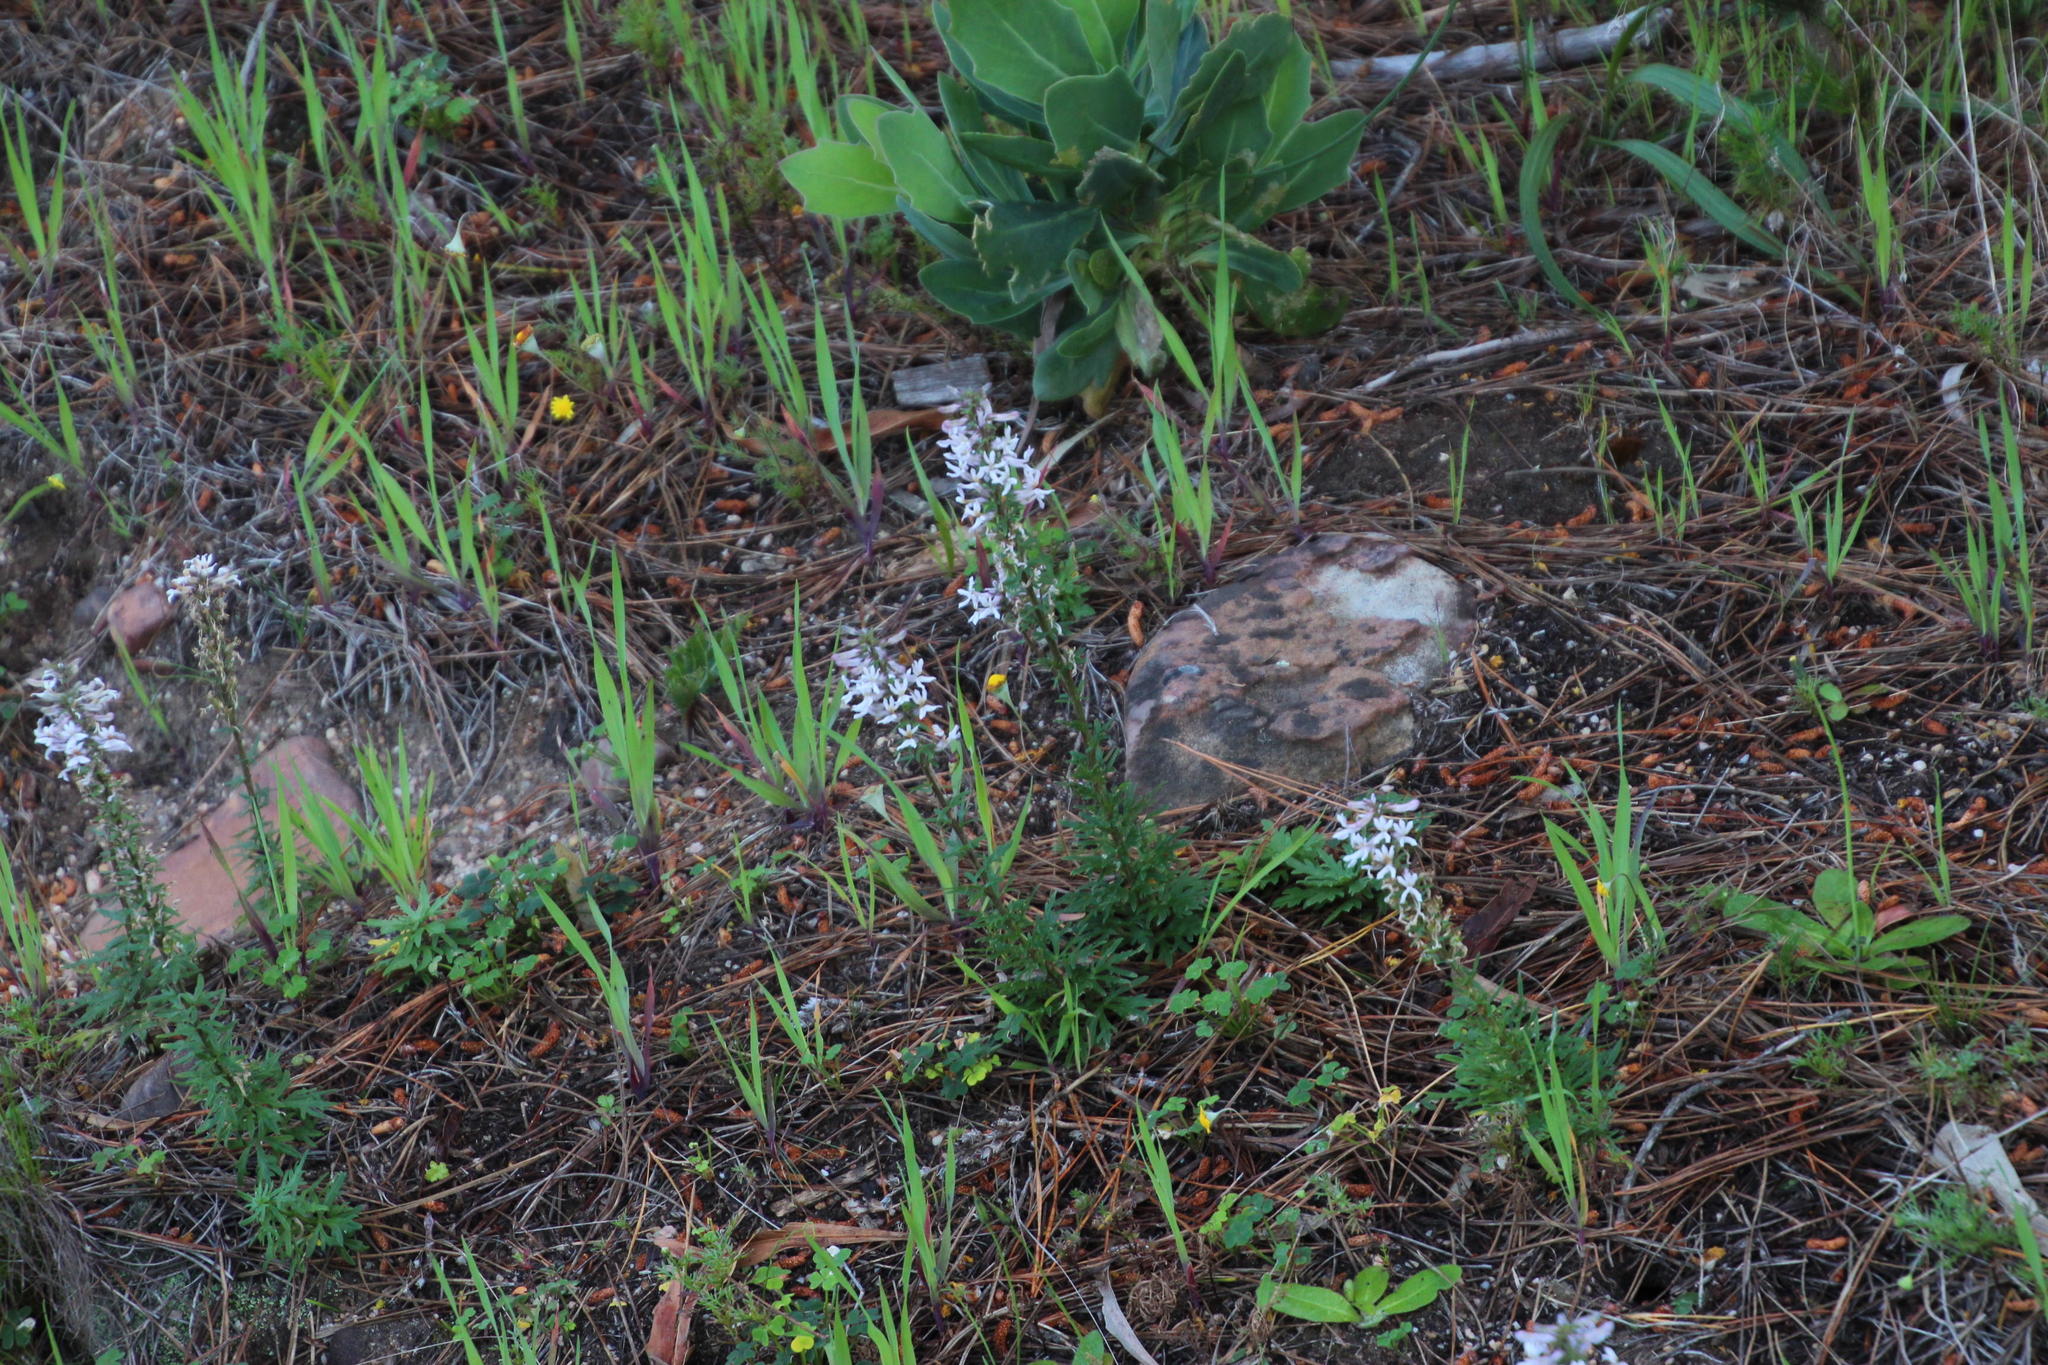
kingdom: Plantae
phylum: Tracheophyta
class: Magnoliopsida
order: Asterales
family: Campanulaceae
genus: Cyphia
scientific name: Cyphia bulbosa
